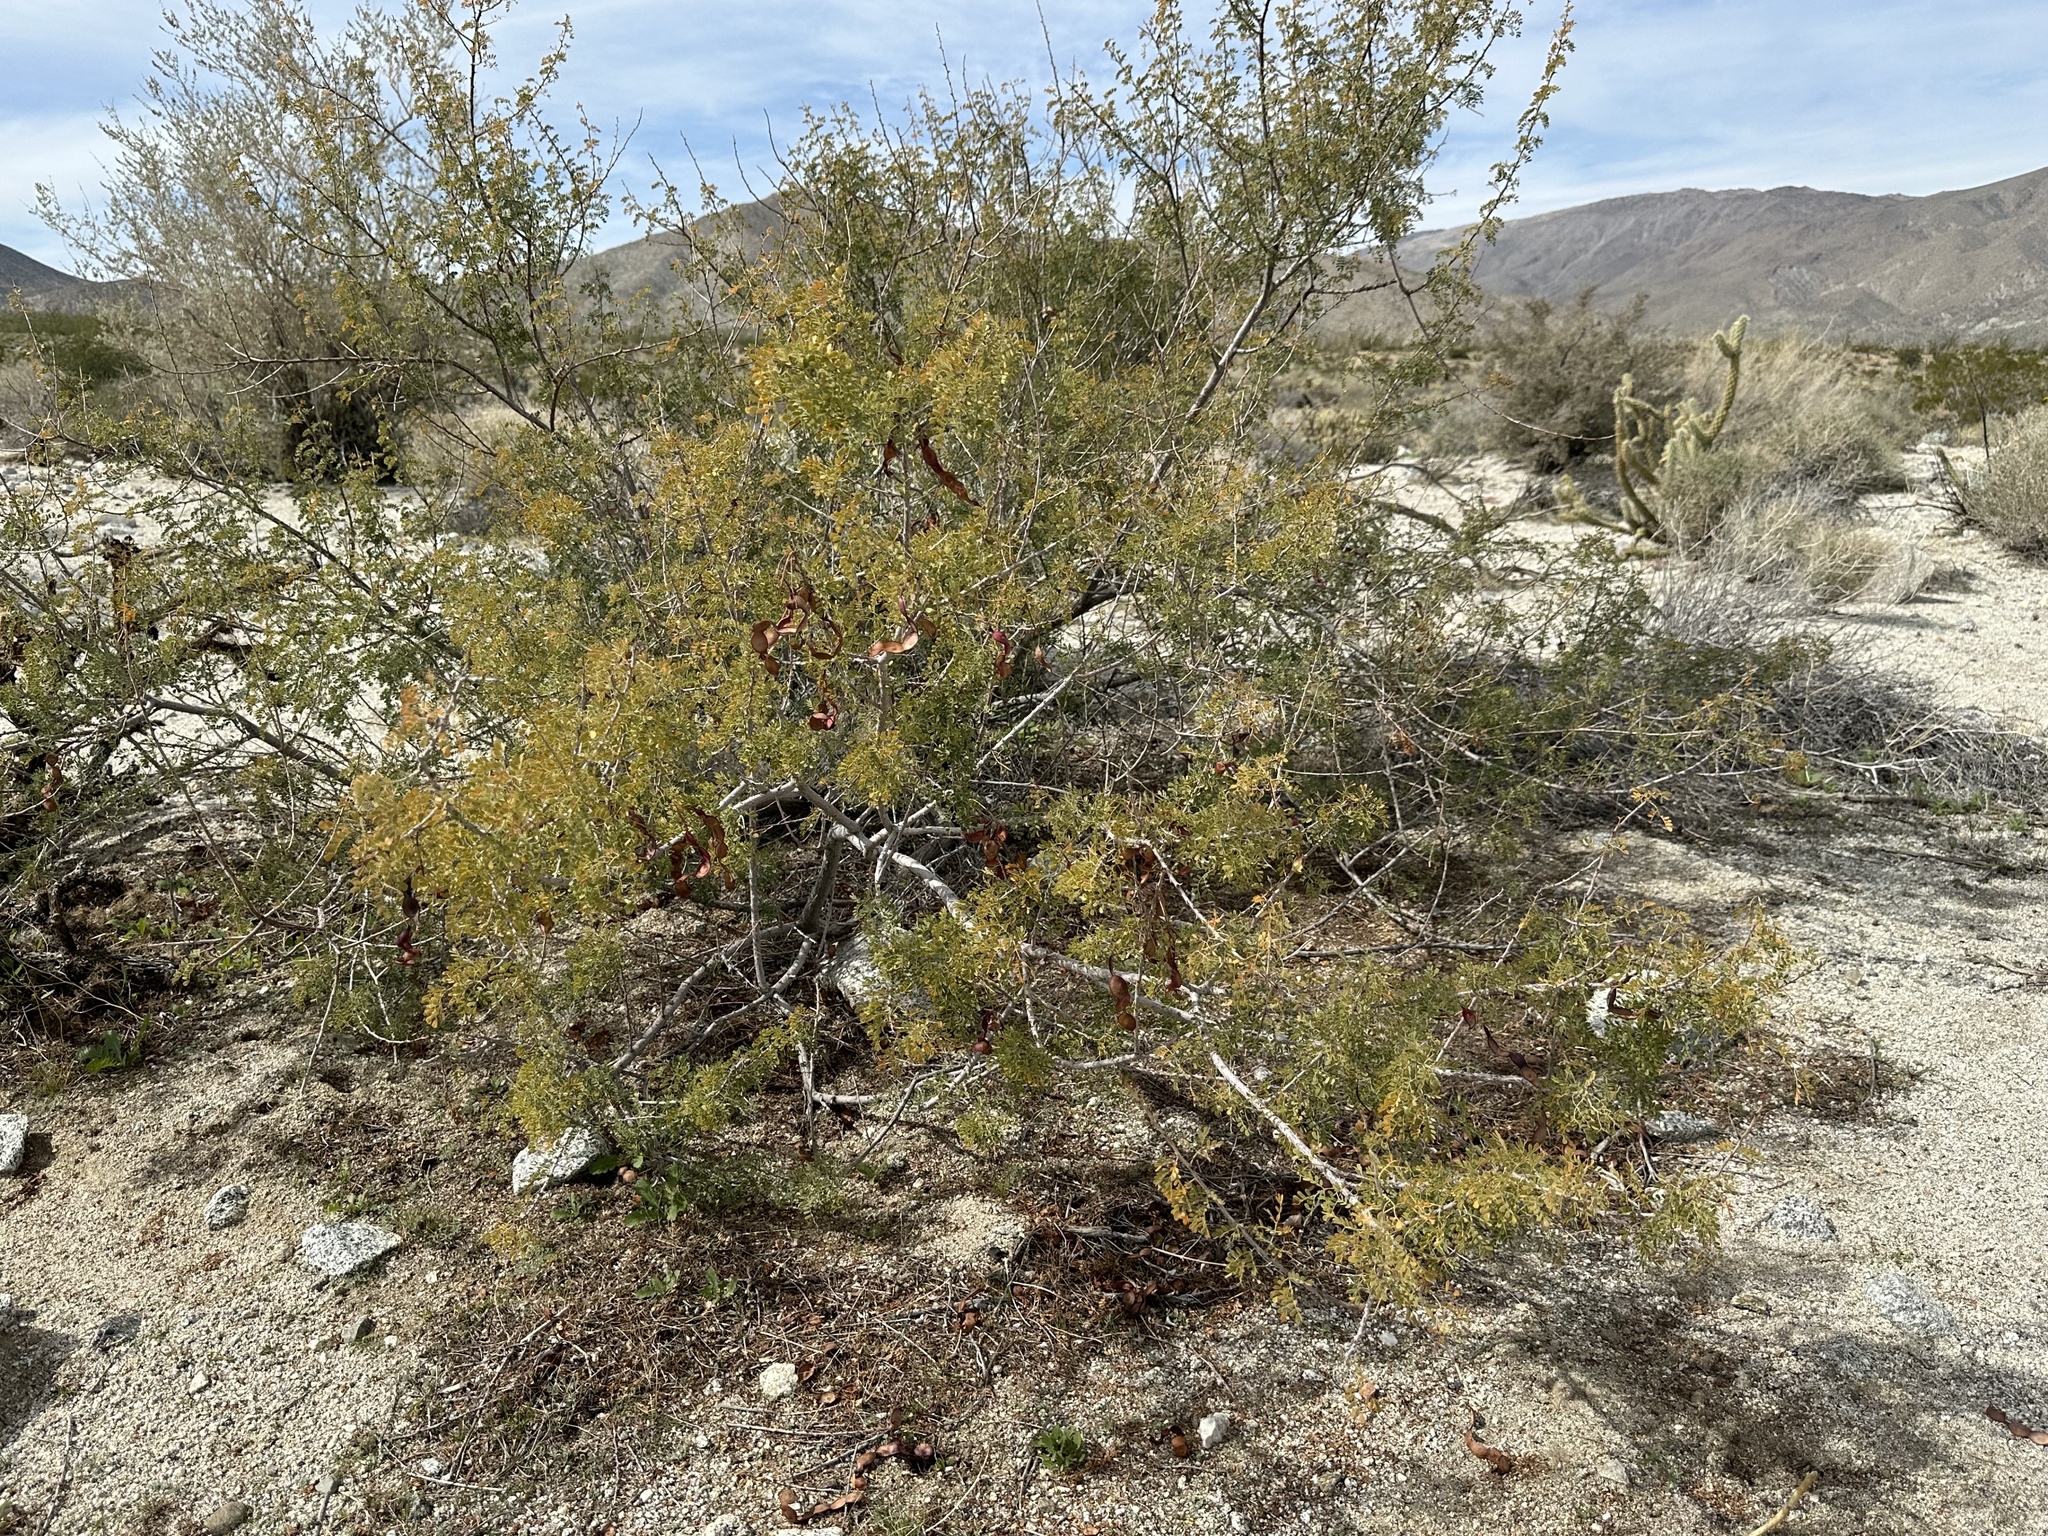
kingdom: Plantae
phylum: Tracheophyta
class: Magnoliopsida
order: Fabales
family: Fabaceae
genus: Senegalia
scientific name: Senegalia greggii
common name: Texas-mimosa
